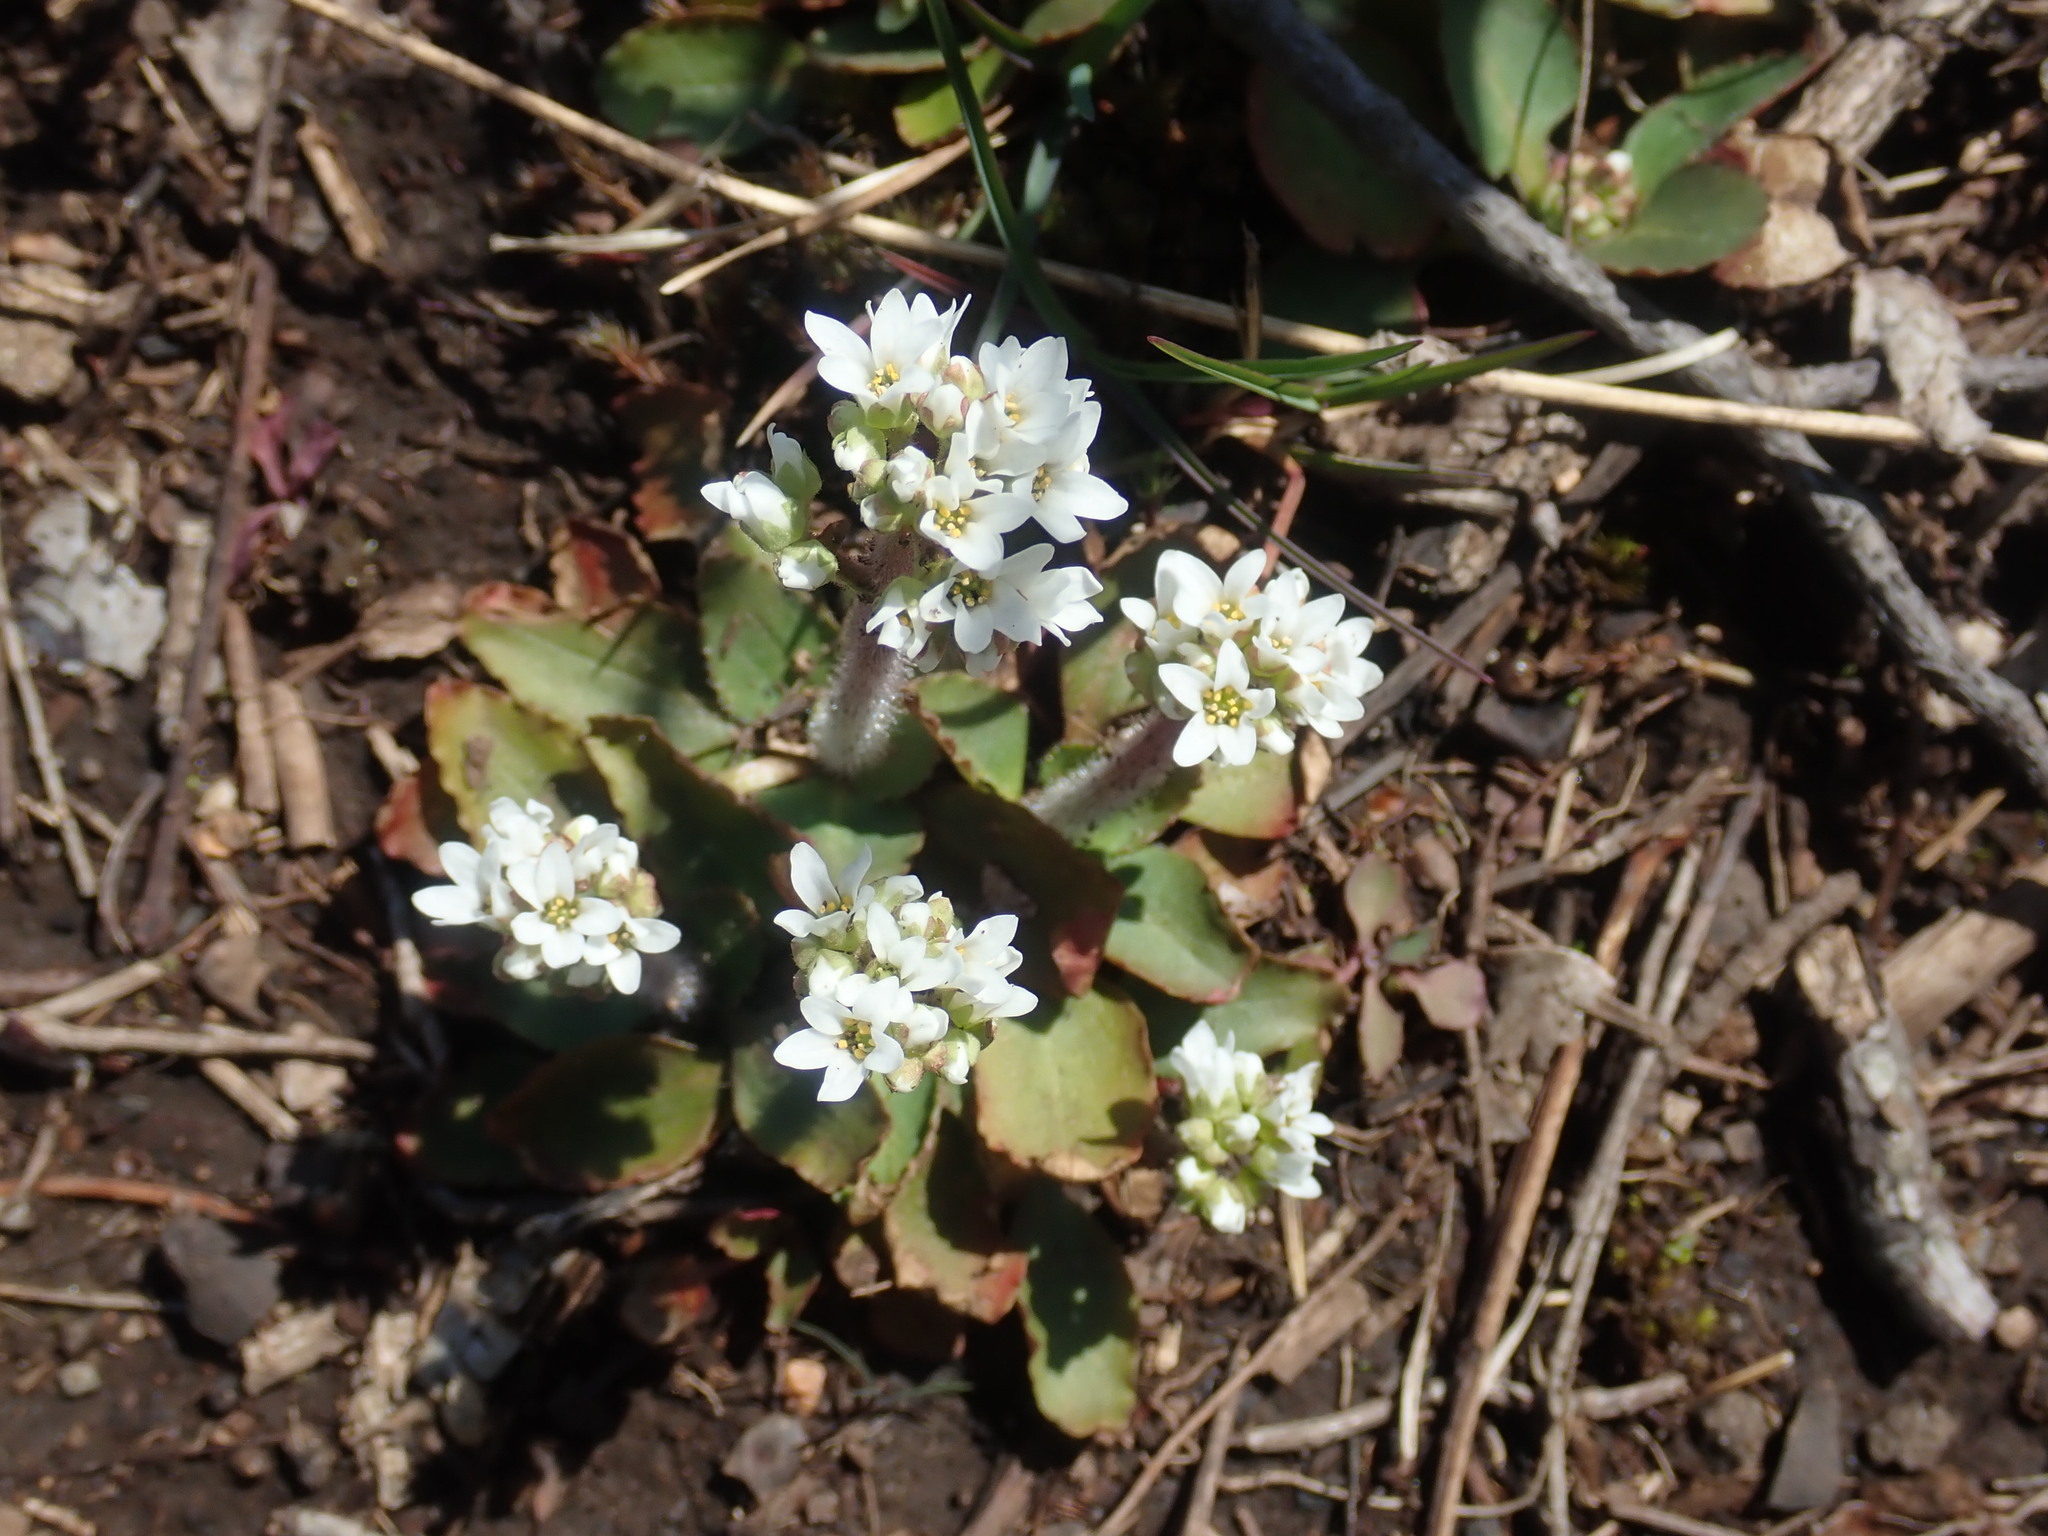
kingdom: Plantae
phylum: Tracheophyta
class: Magnoliopsida
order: Saxifragales
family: Saxifragaceae
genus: Micranthes
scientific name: Micranthes virginiensis
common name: Early saxifrage
